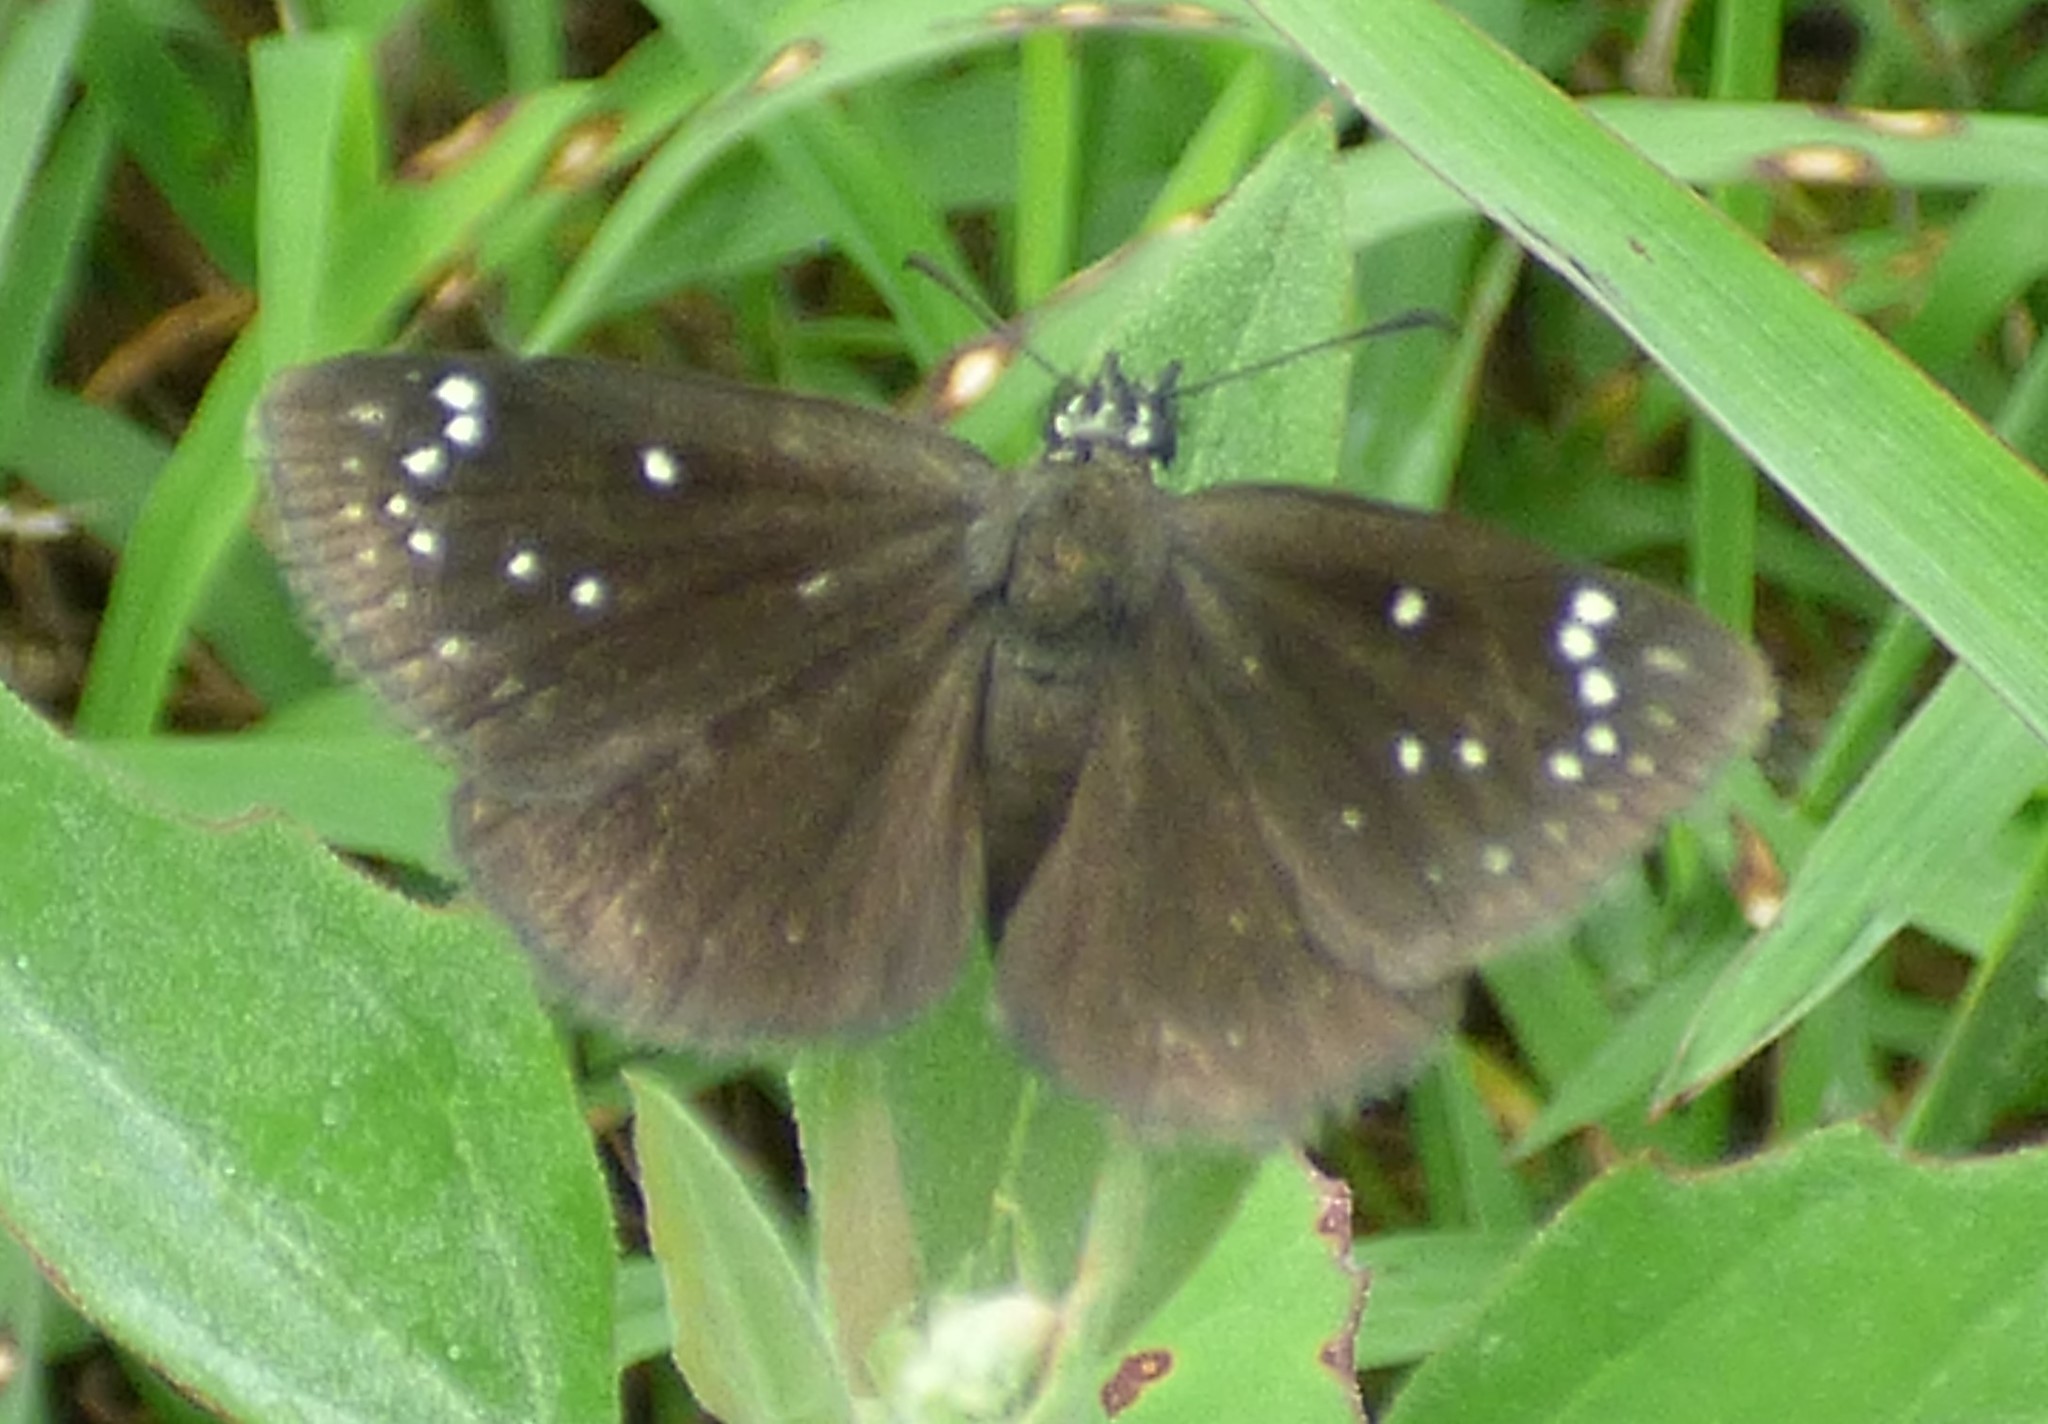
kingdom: Animalia
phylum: Arthropoda
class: Insecta
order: Lepidoptera
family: Hesperiidae
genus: Pholisora
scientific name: Pholisora catullus
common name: Common sootywing
